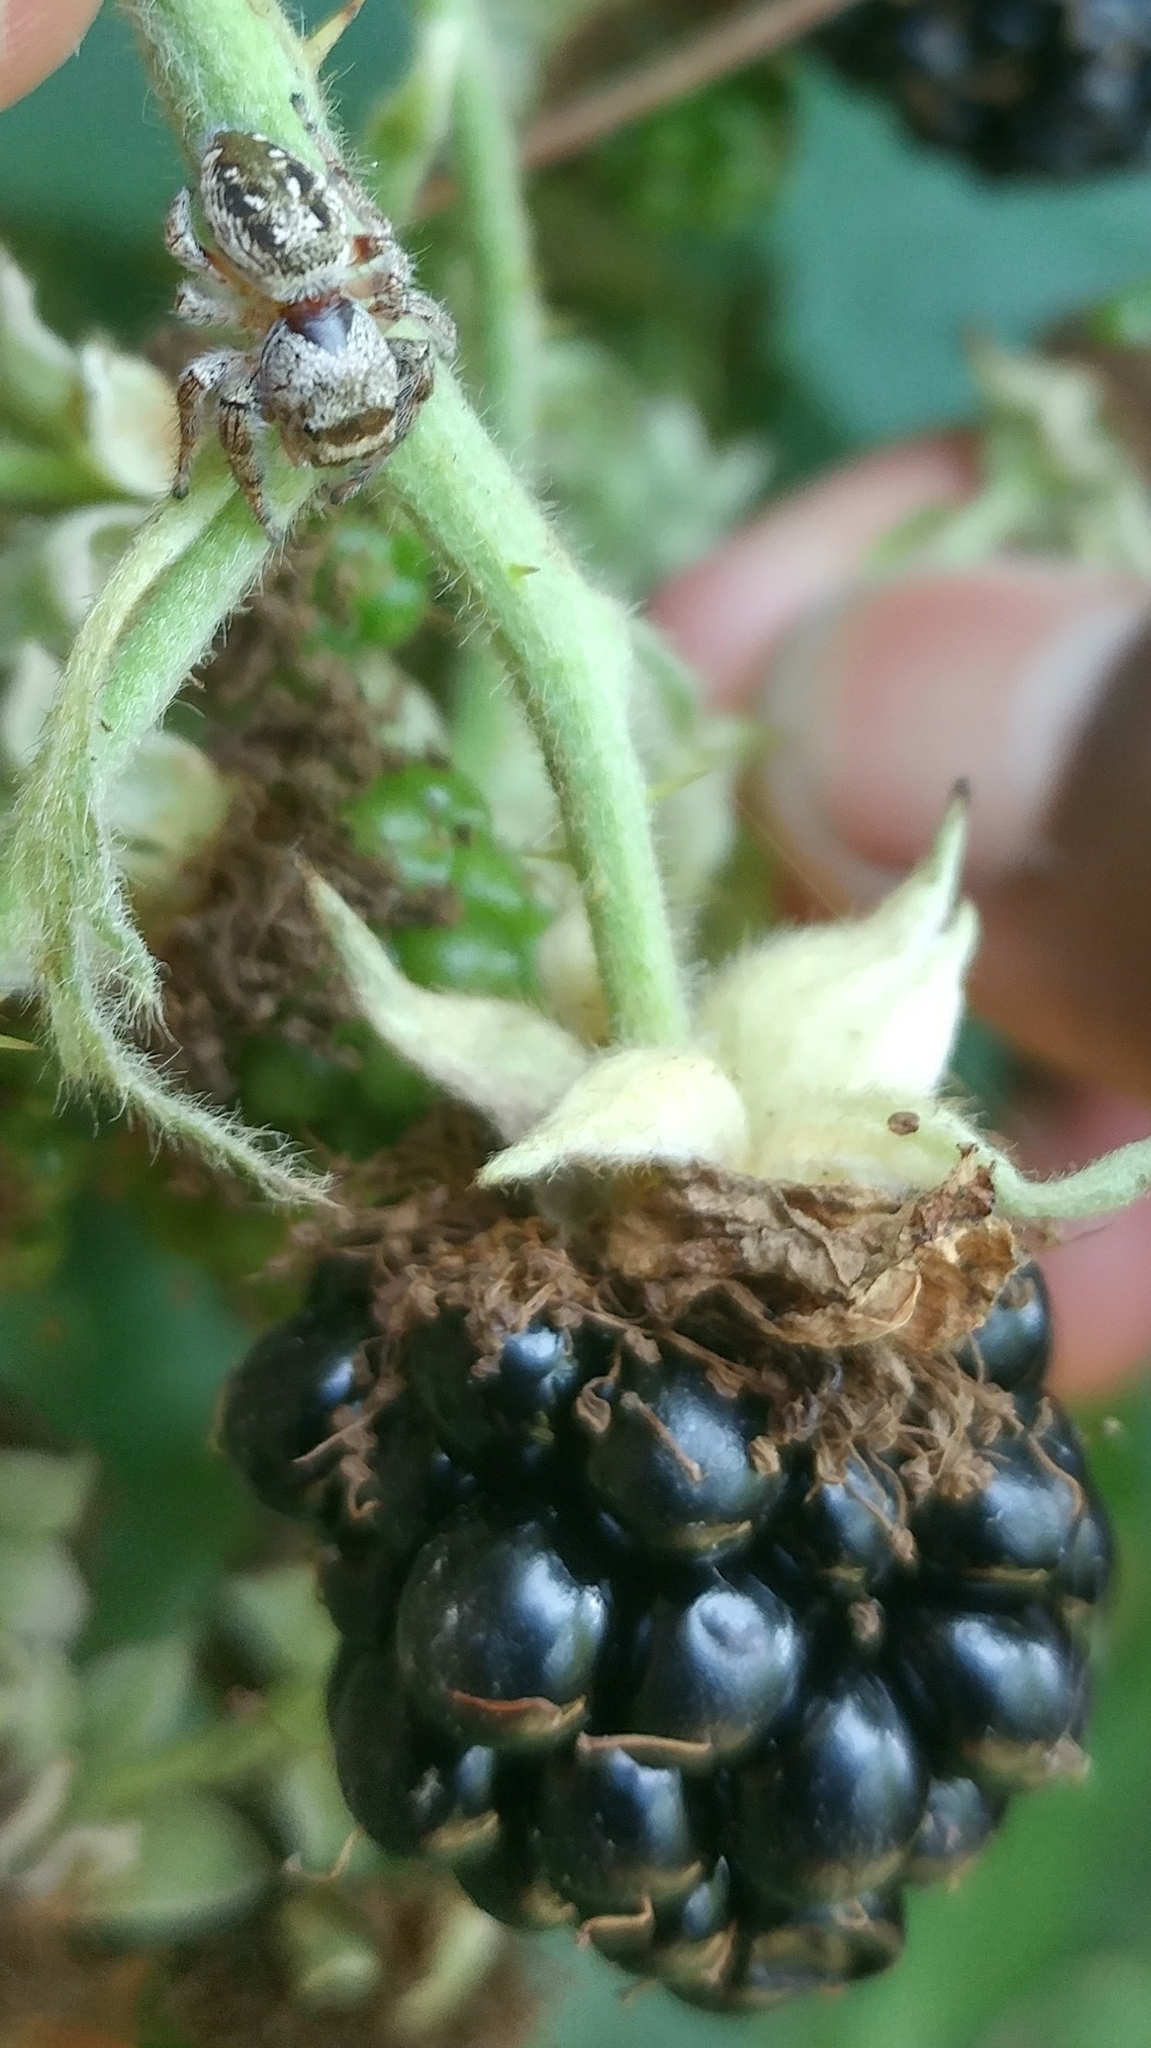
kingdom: Animalia
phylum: Arthropoda
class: Arachnida
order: Araneae
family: Salticidae
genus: Eris
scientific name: Eris militaris
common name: Bronze jumper
